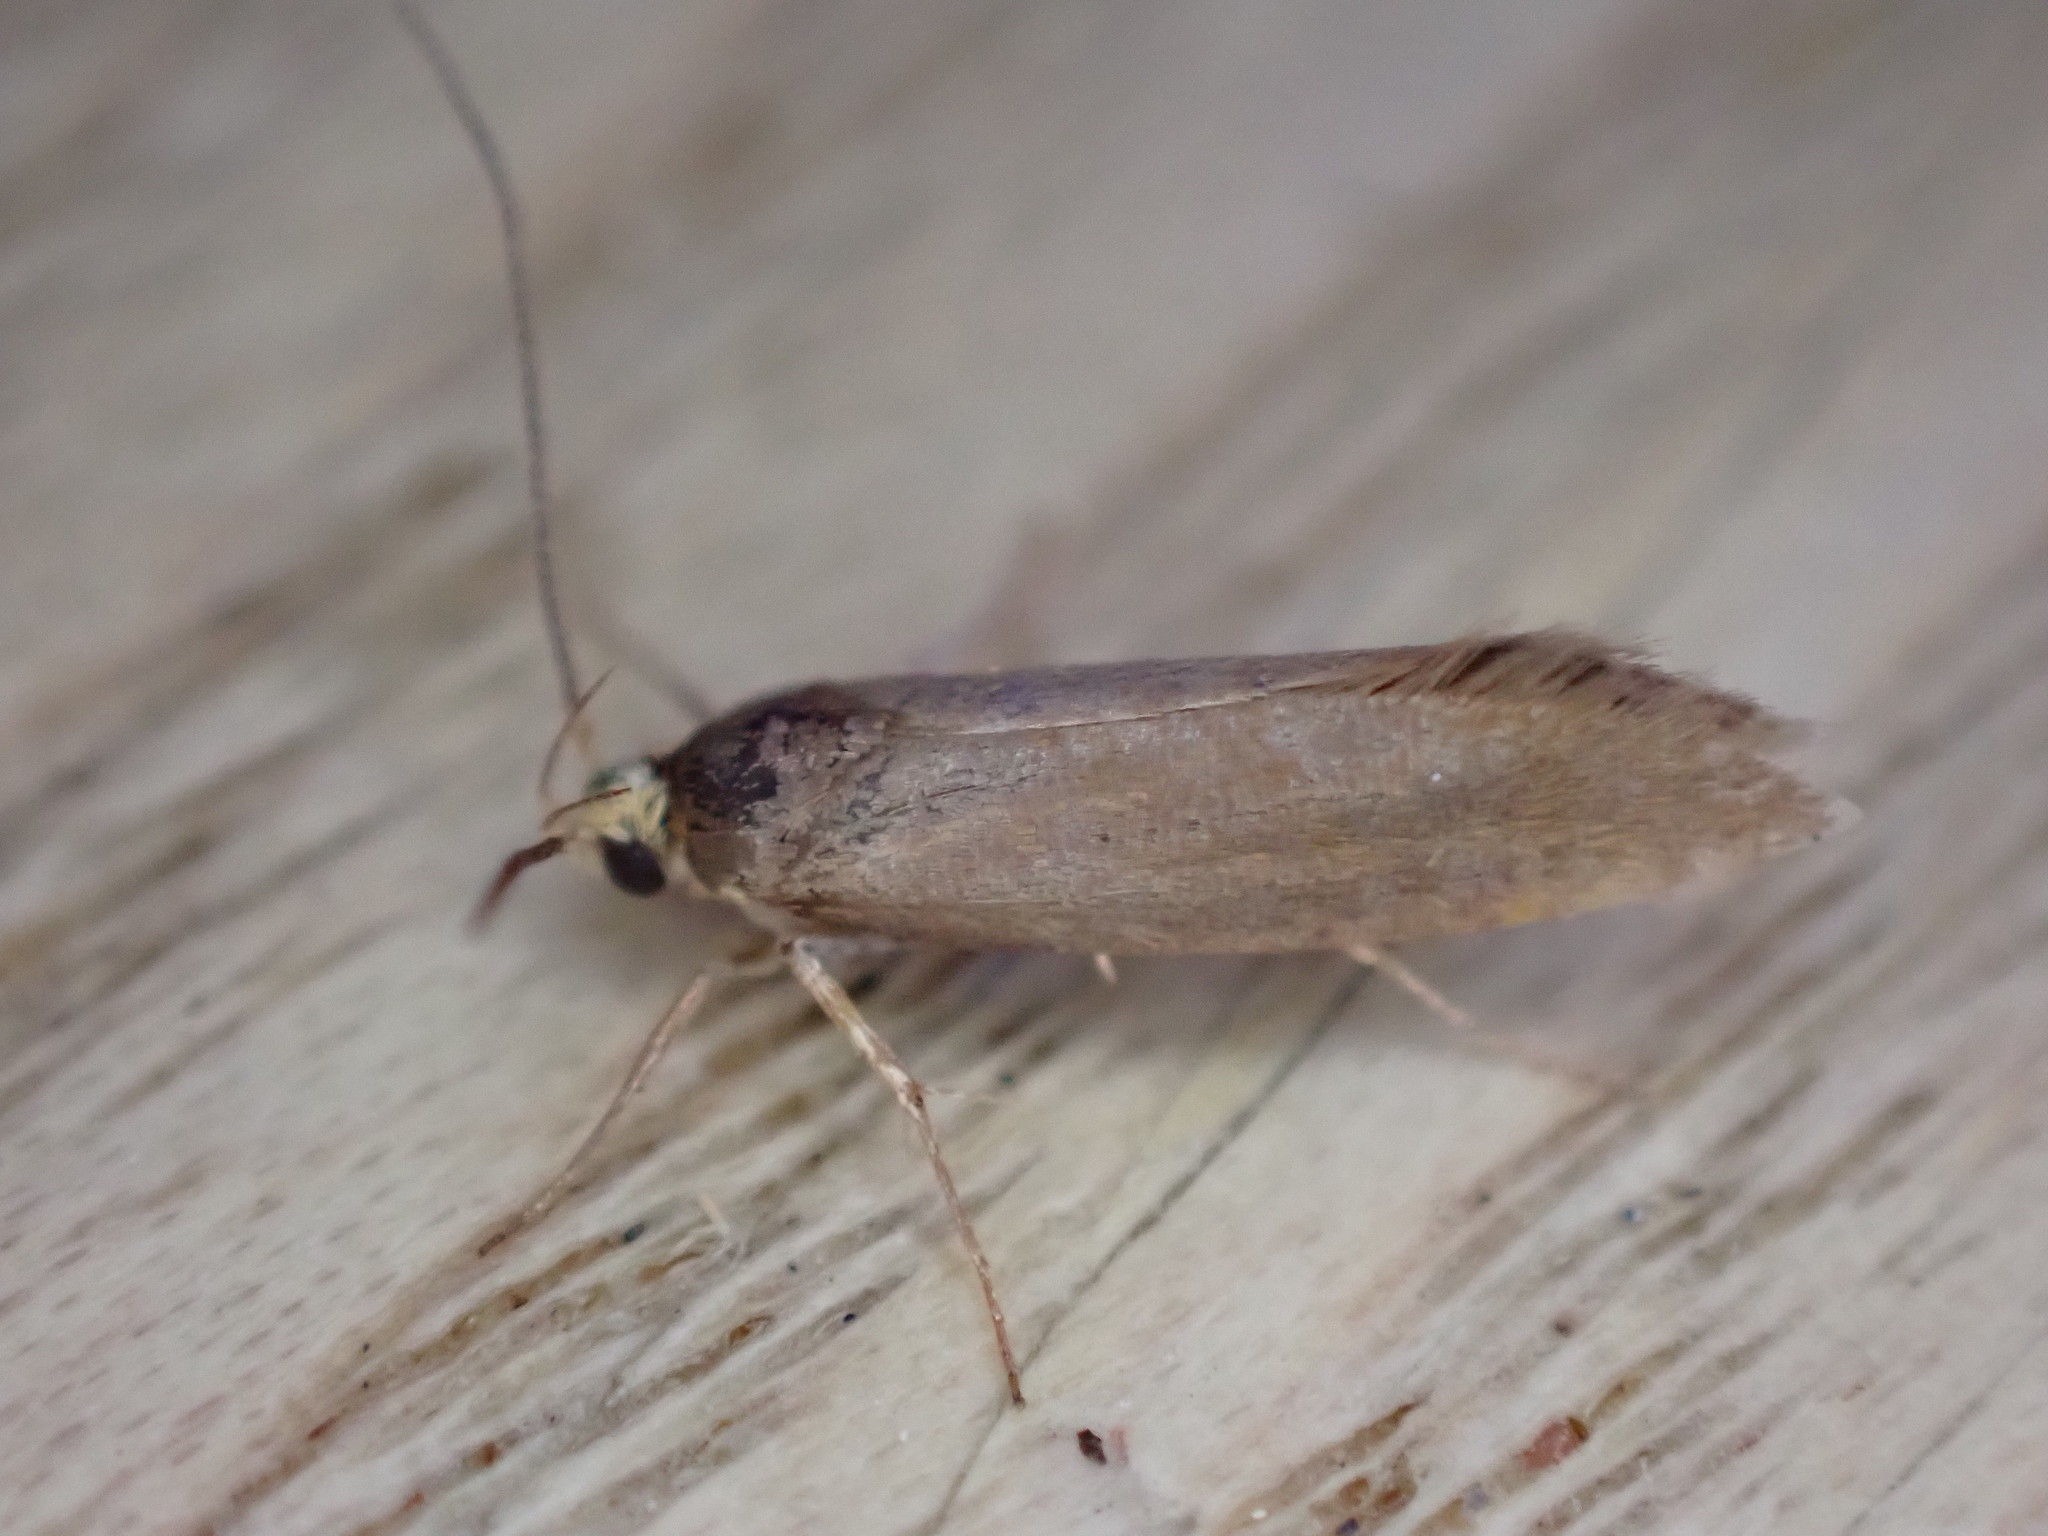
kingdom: Animalia
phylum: Arthropoda
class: Insecta
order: Lepidoptera
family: Oecophoridae
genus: Borkhausenia
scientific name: Borkhausenia Crassa unitella
